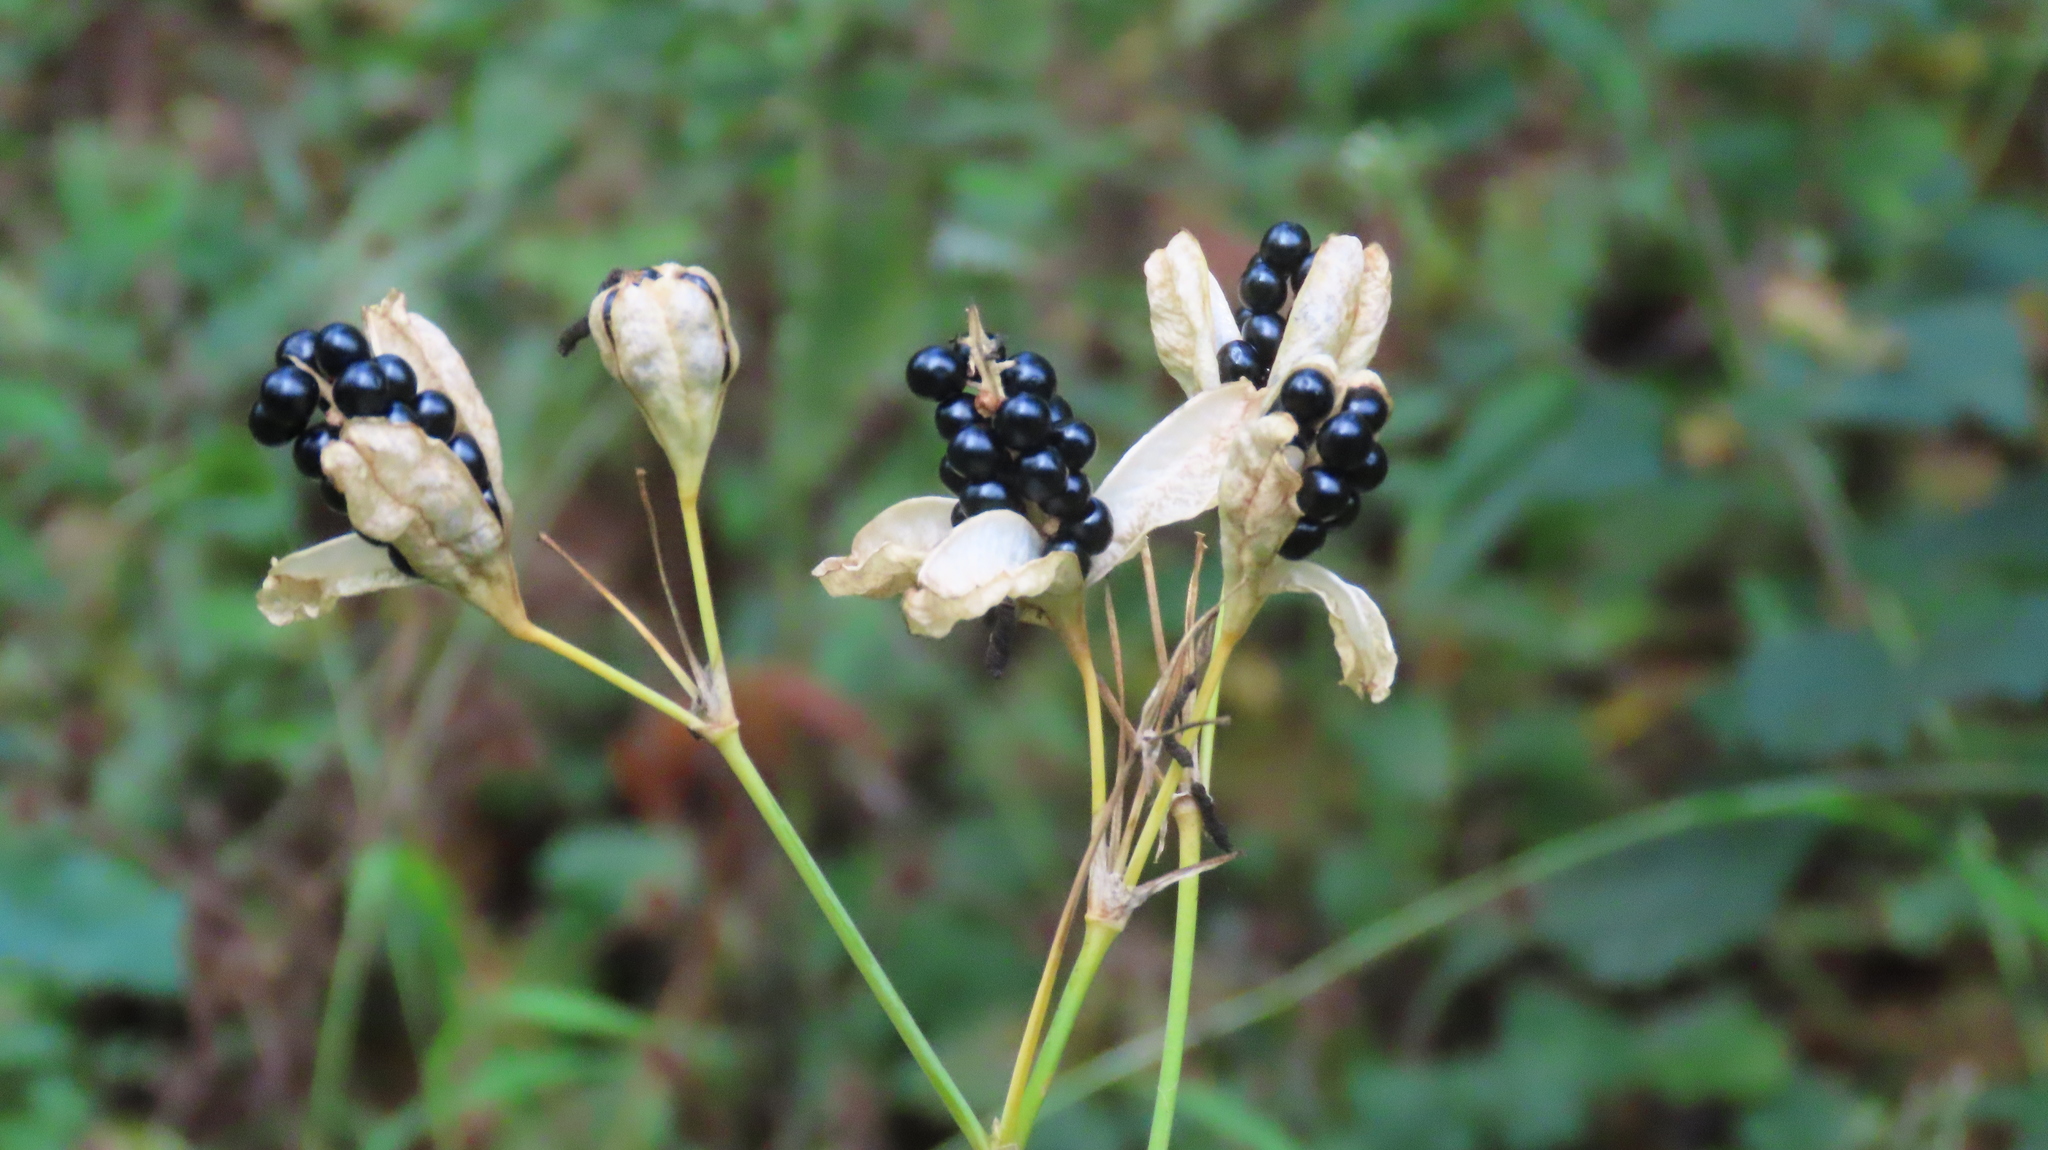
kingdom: Plantae
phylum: Tracheophyta
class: Liliopsida
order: Asparagales
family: Iridaceae
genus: Iris
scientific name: Iris domestica
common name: Belamcanda
